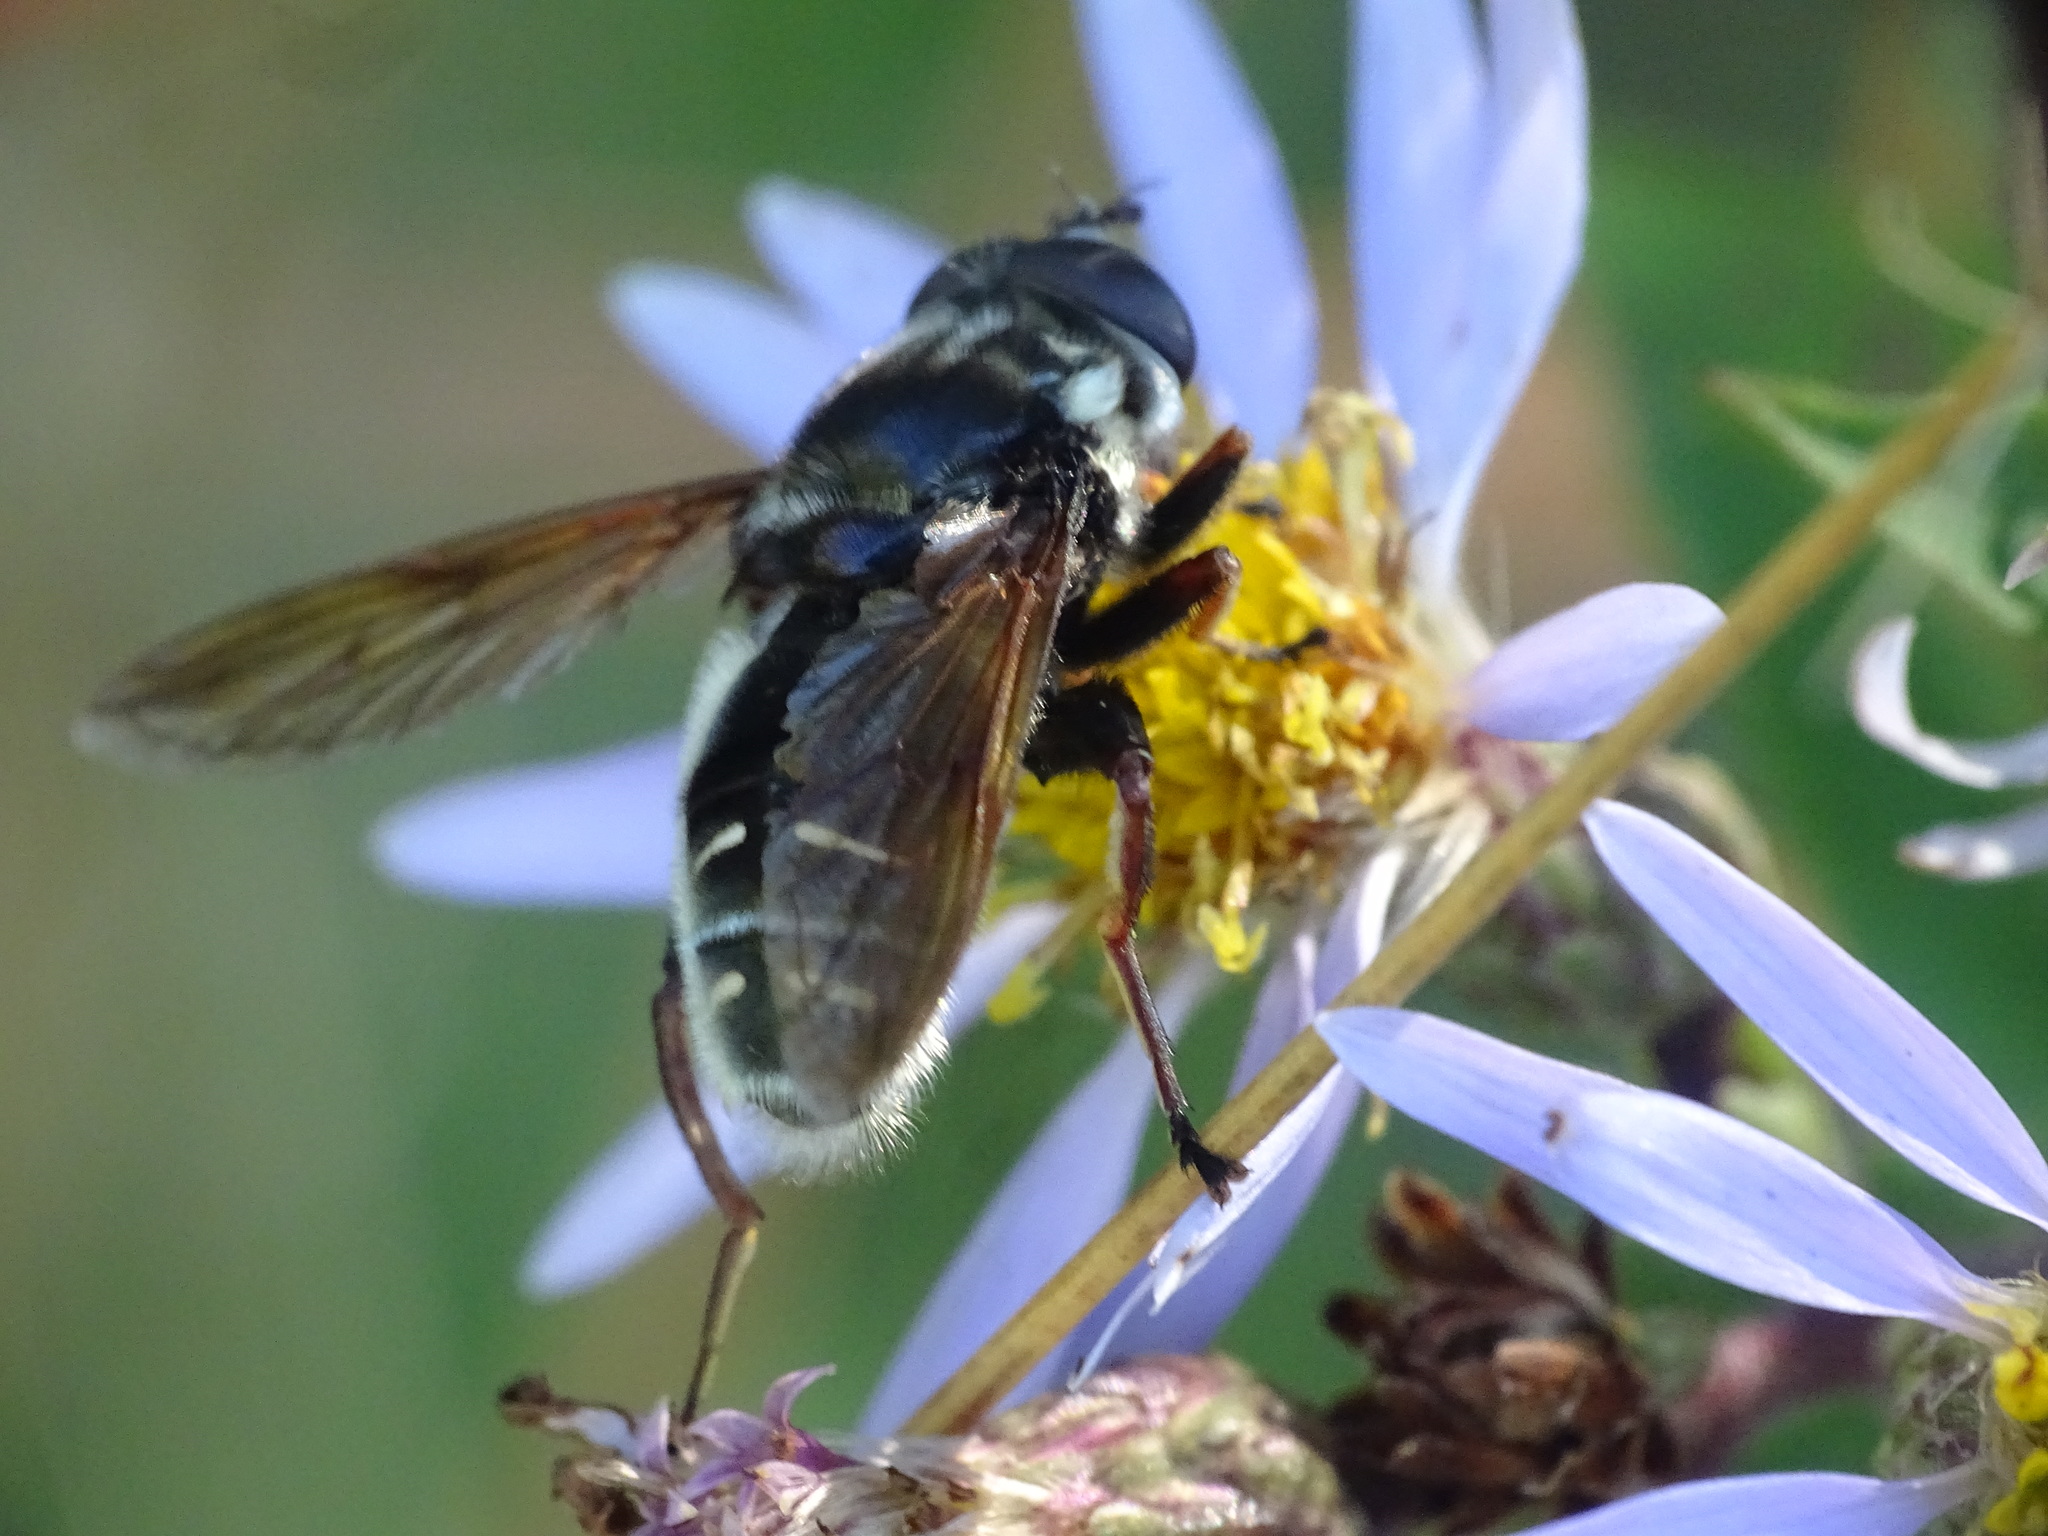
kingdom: Animalia
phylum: Arthropoda
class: Insecta
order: Diptera
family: Syrphidae
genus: Sericomyia
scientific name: Sericomyia militaris
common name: Narrow-banded pond fly
